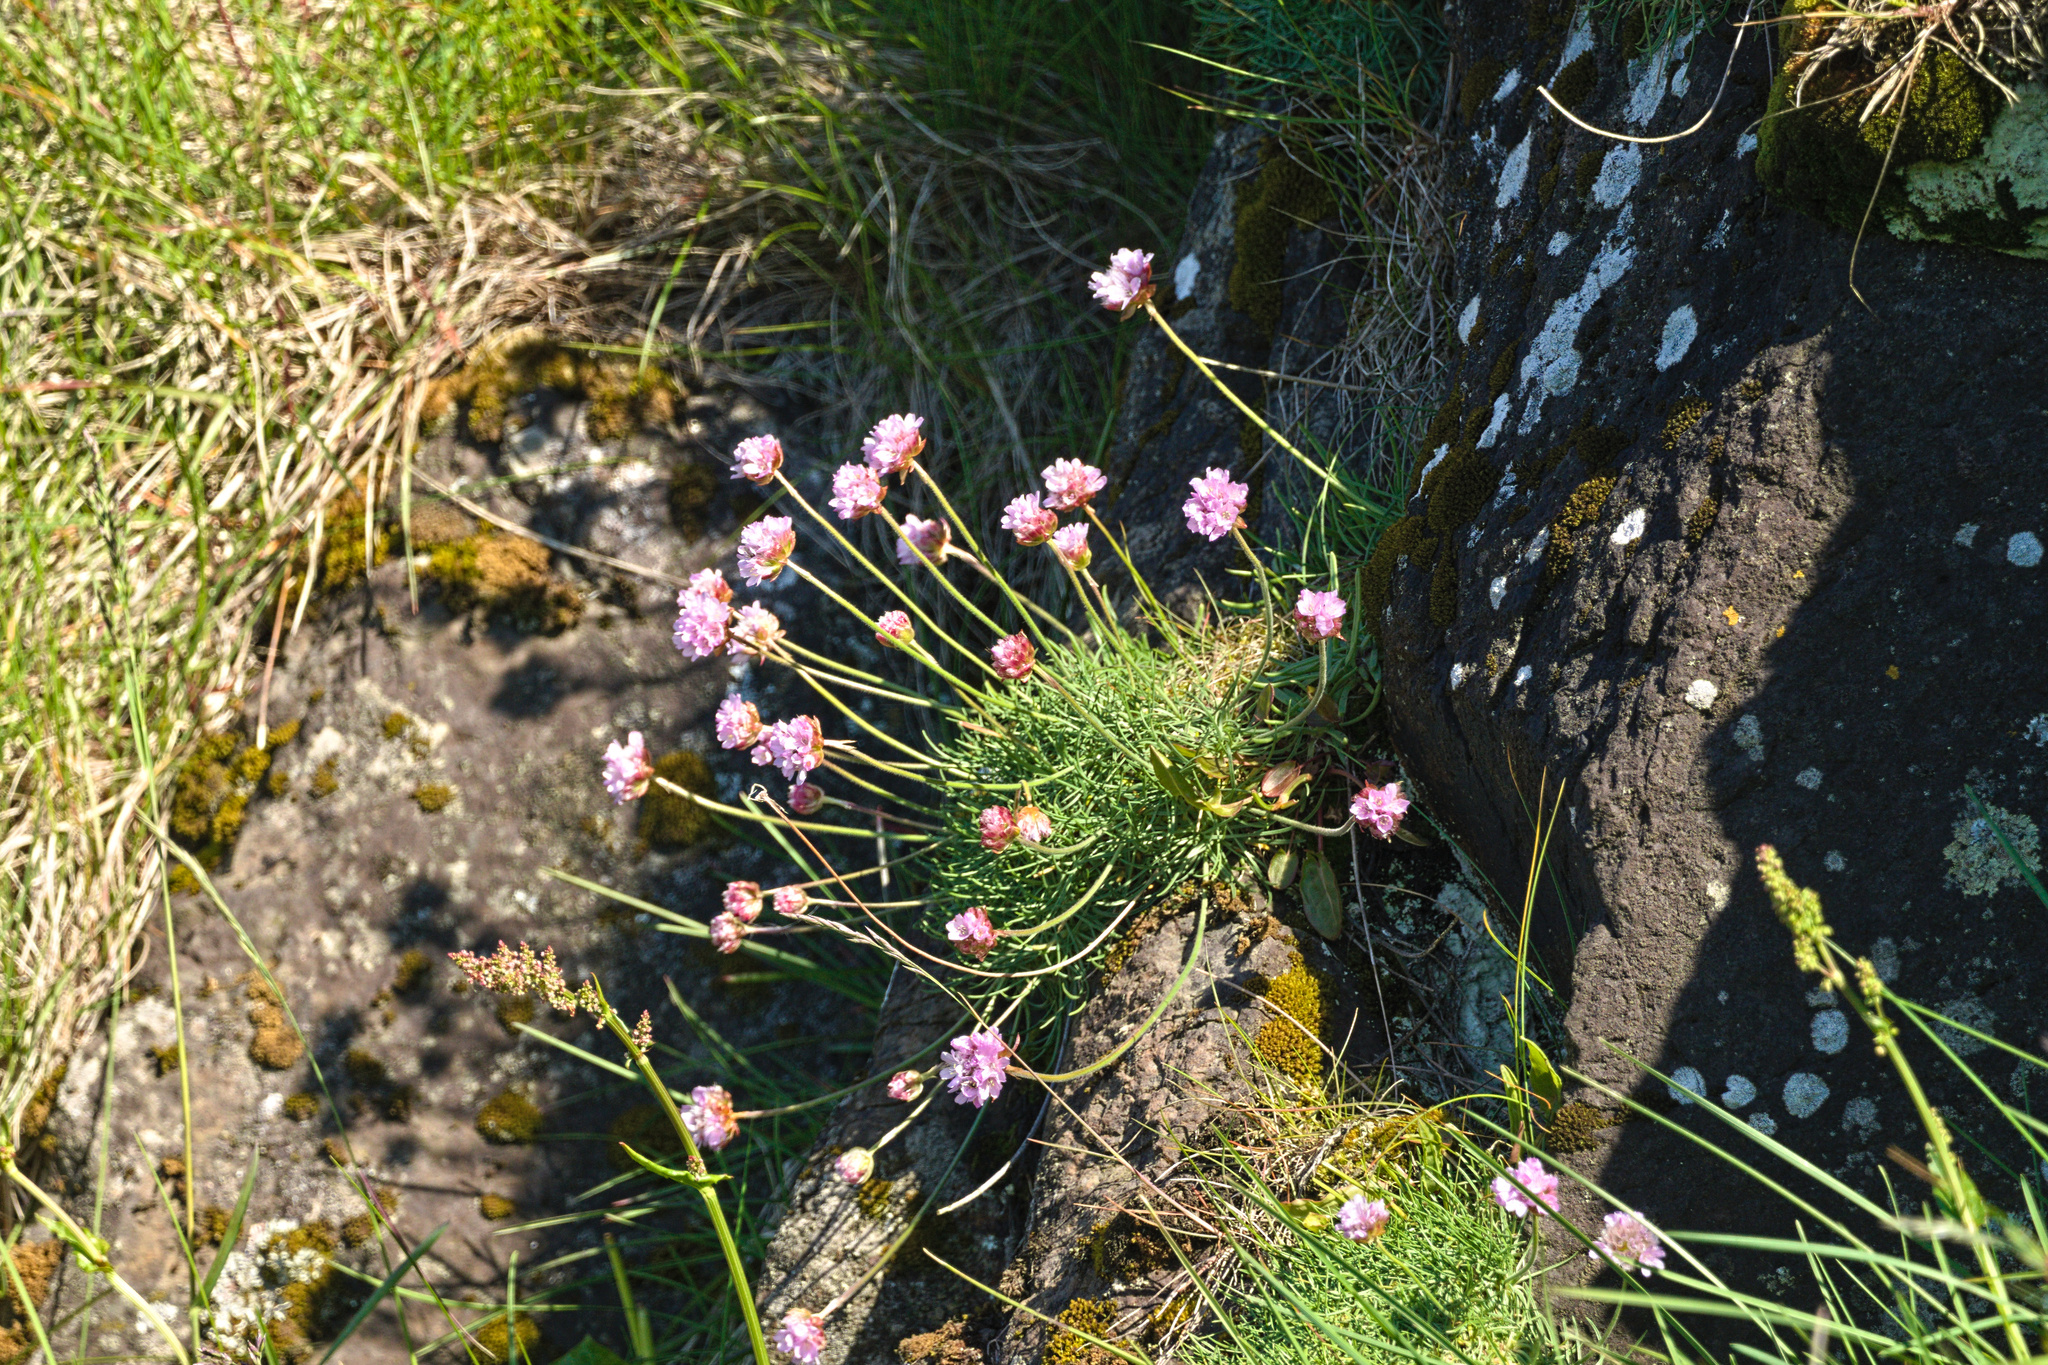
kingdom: Plantae
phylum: Tracheophyta
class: Magnoliopsida
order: Caryophyllales
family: Plumbaginaceae
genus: Armeria
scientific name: Armeria maritima
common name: Thrift
